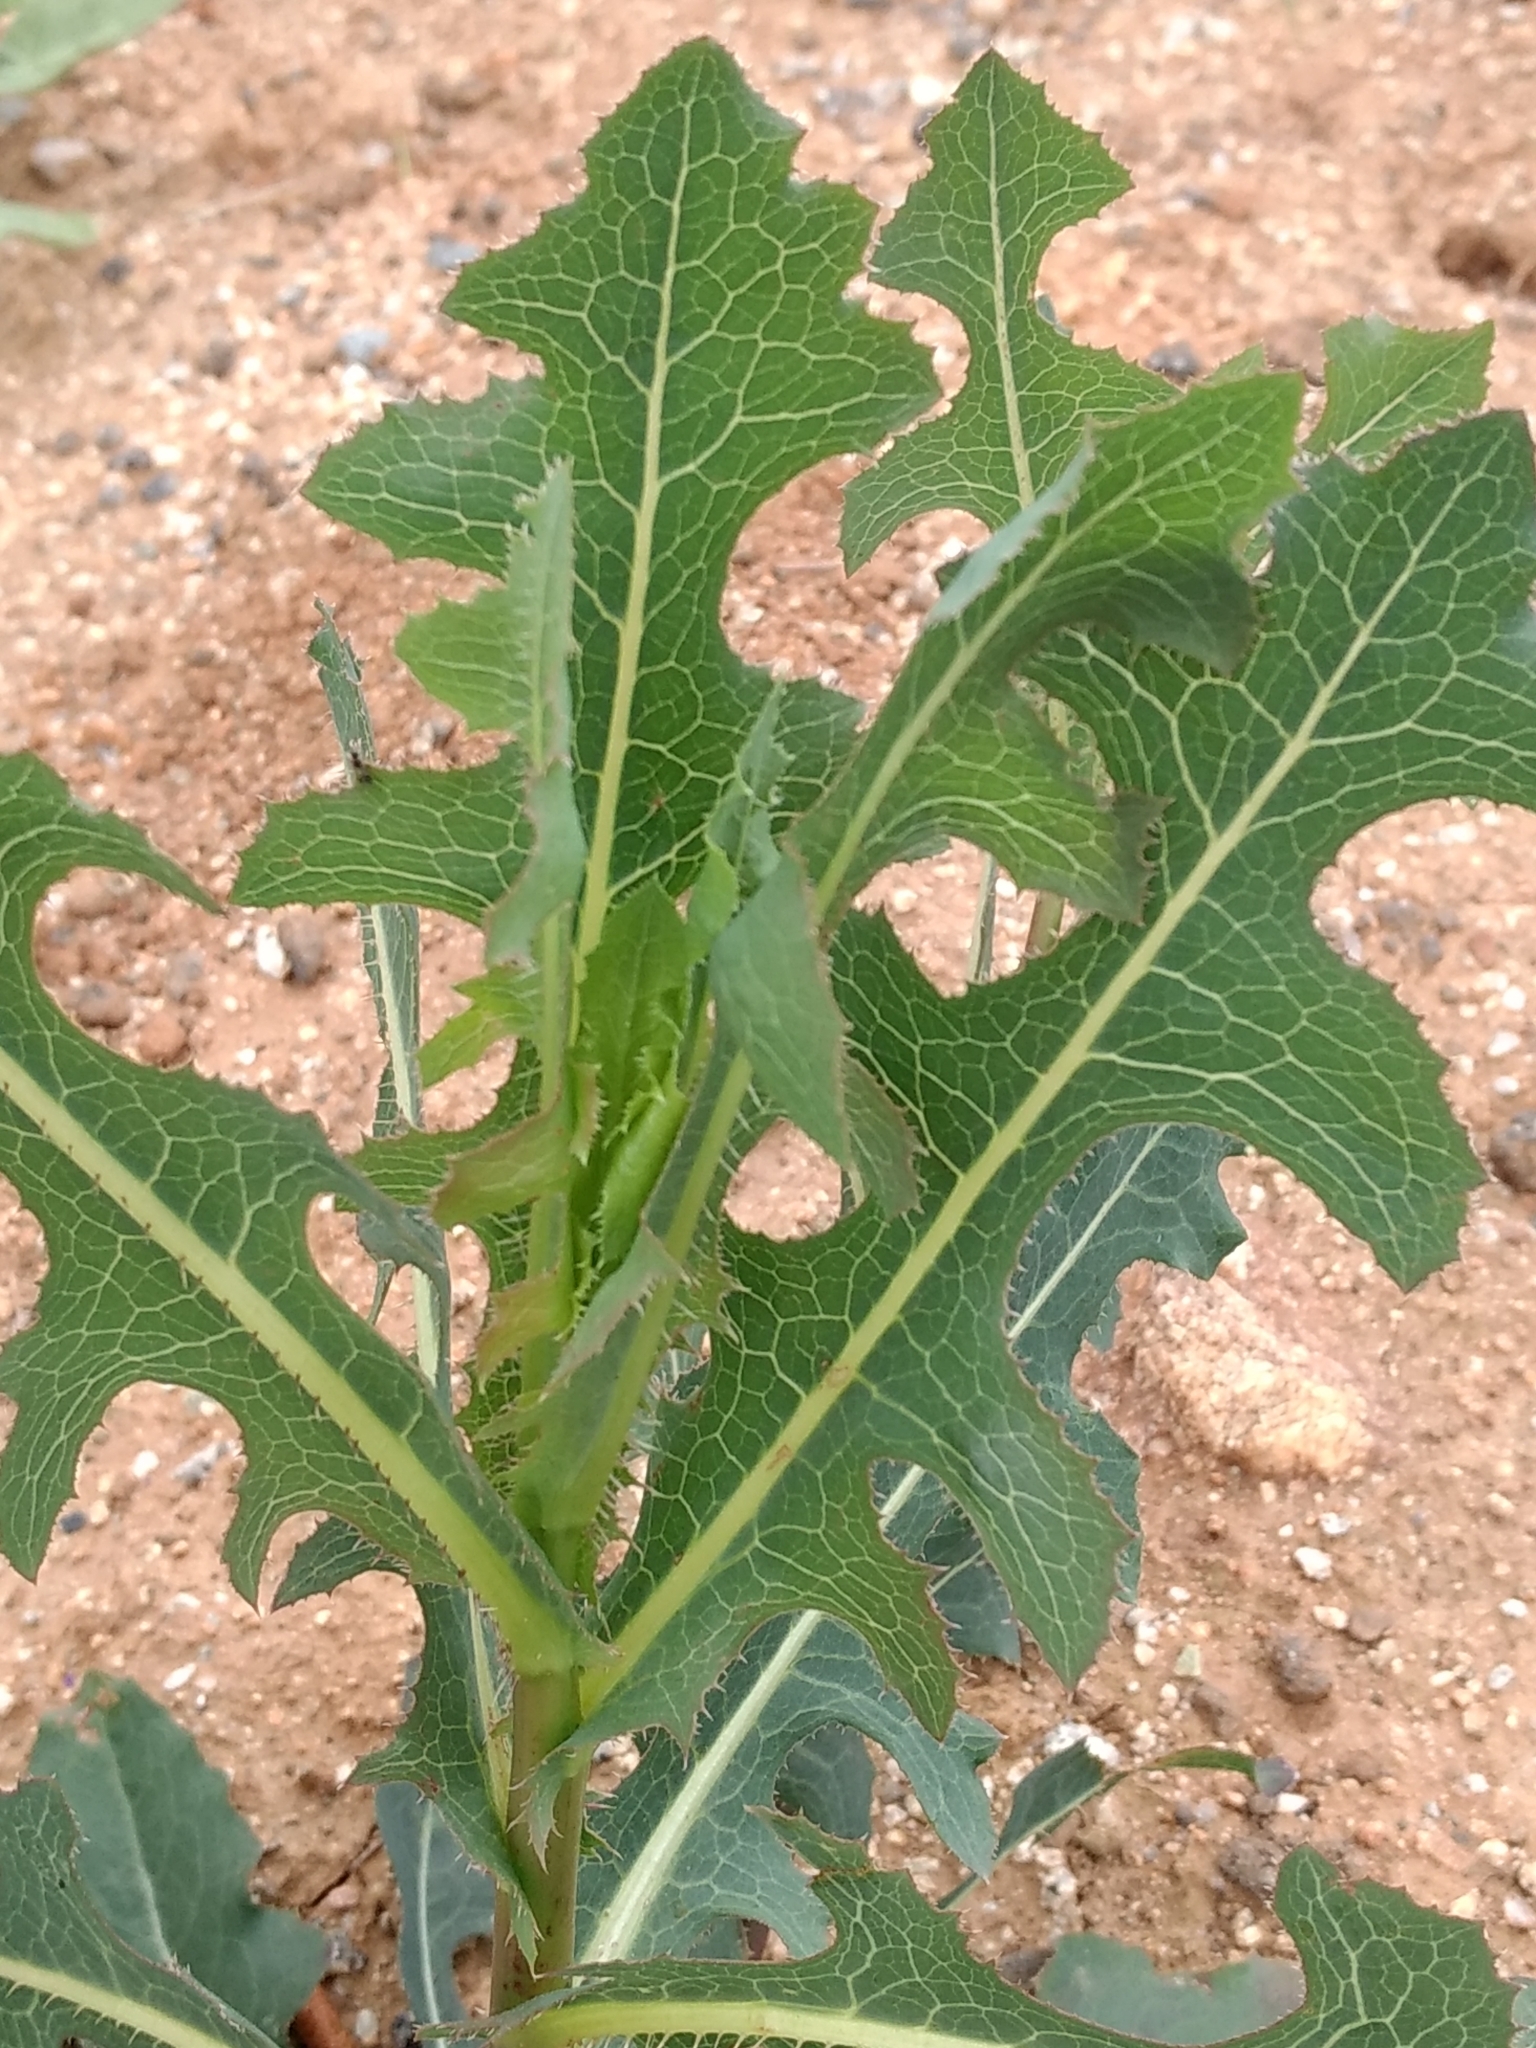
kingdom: Plantae
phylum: Tracheophyta
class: Magnoliopsida
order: Asterales
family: Asteraceae
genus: Lactuca
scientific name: Lactuca serriola
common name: Prickly lettuce
